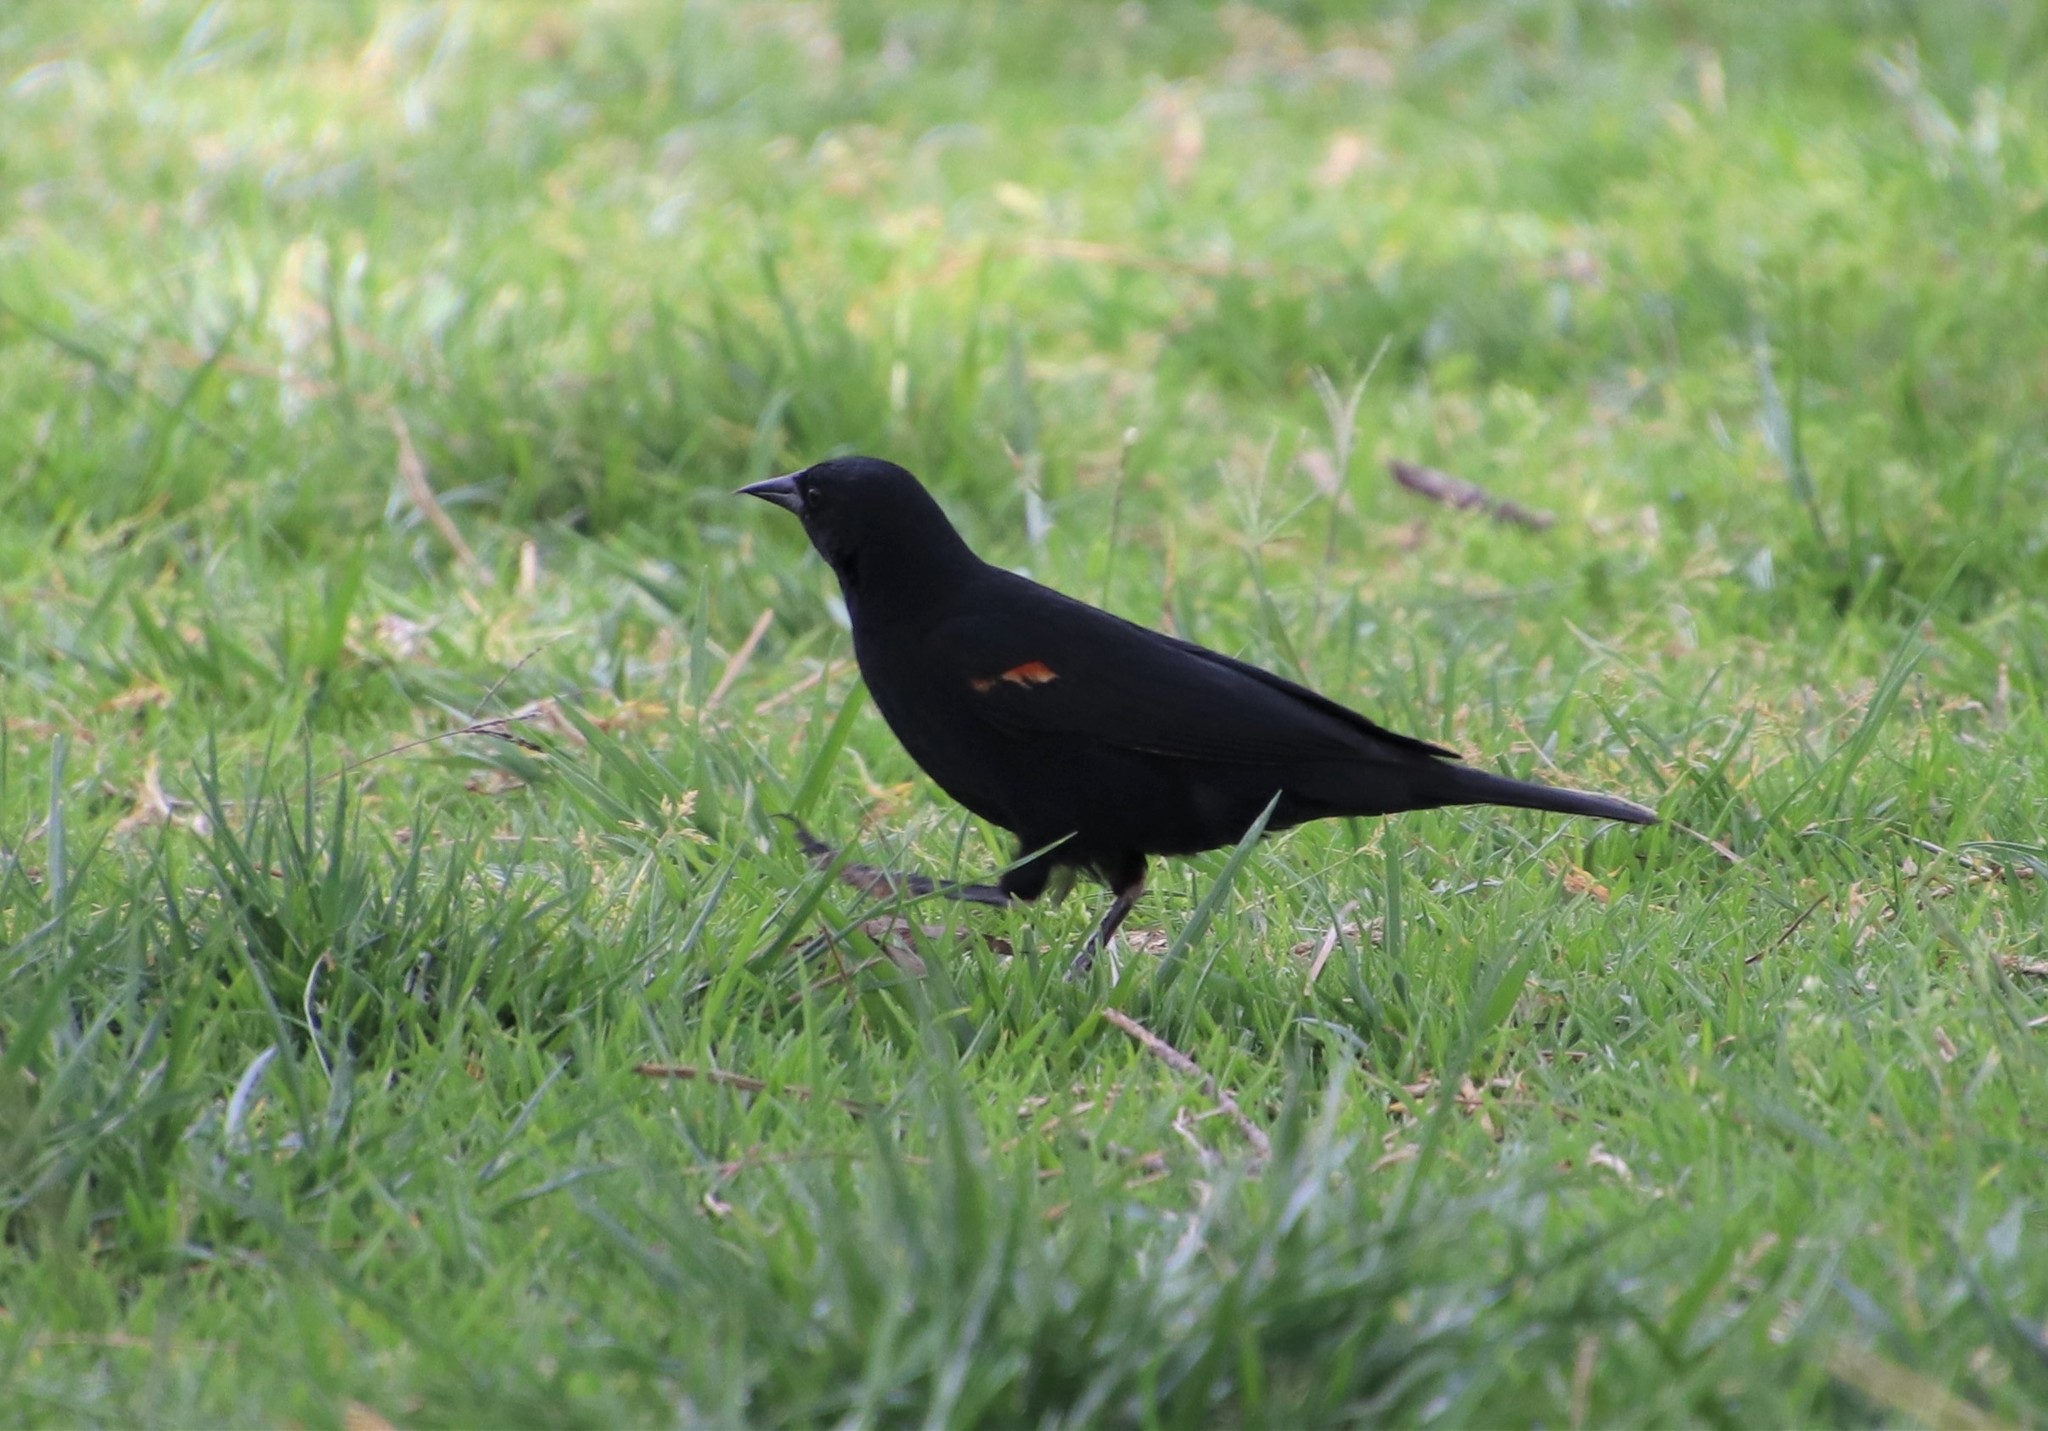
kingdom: Animalia
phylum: Chordata
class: Aves
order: Passeriformes
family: Icteridae
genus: Agelaius
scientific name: Agelaius phoeniceus
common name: Red-winged blackbird
